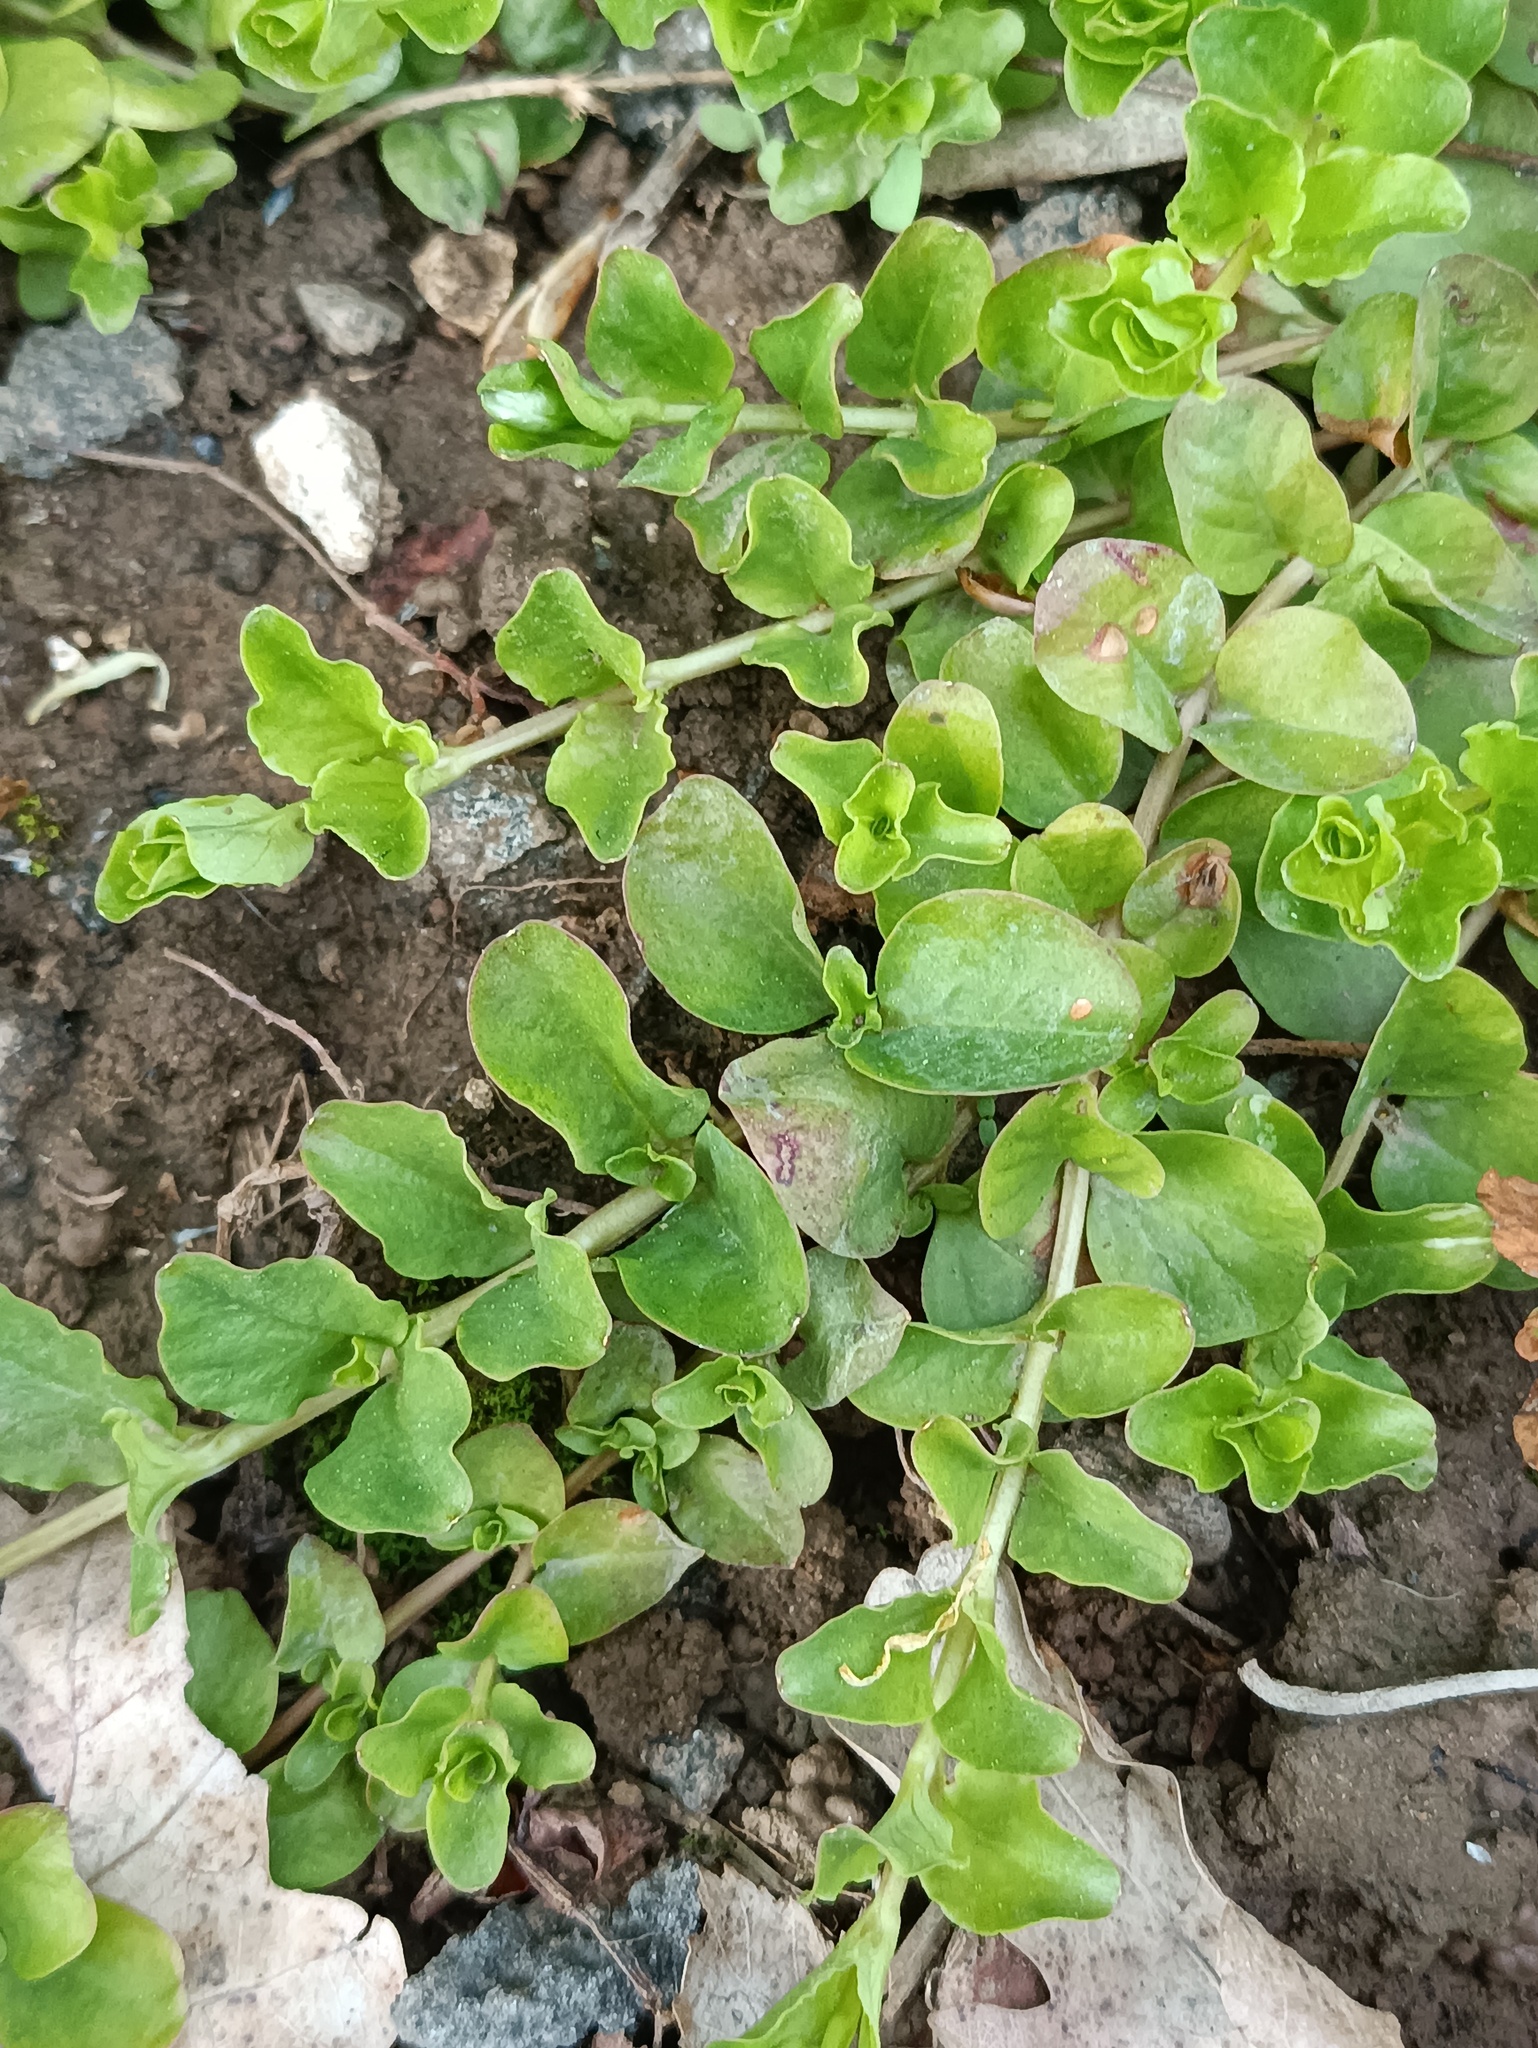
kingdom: Plantae
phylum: Tracheophyta
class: Magnoliopsida
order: Ericales
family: Primulaceae
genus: Lysimachia
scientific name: Lysimachia nummularia
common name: Moneywort
